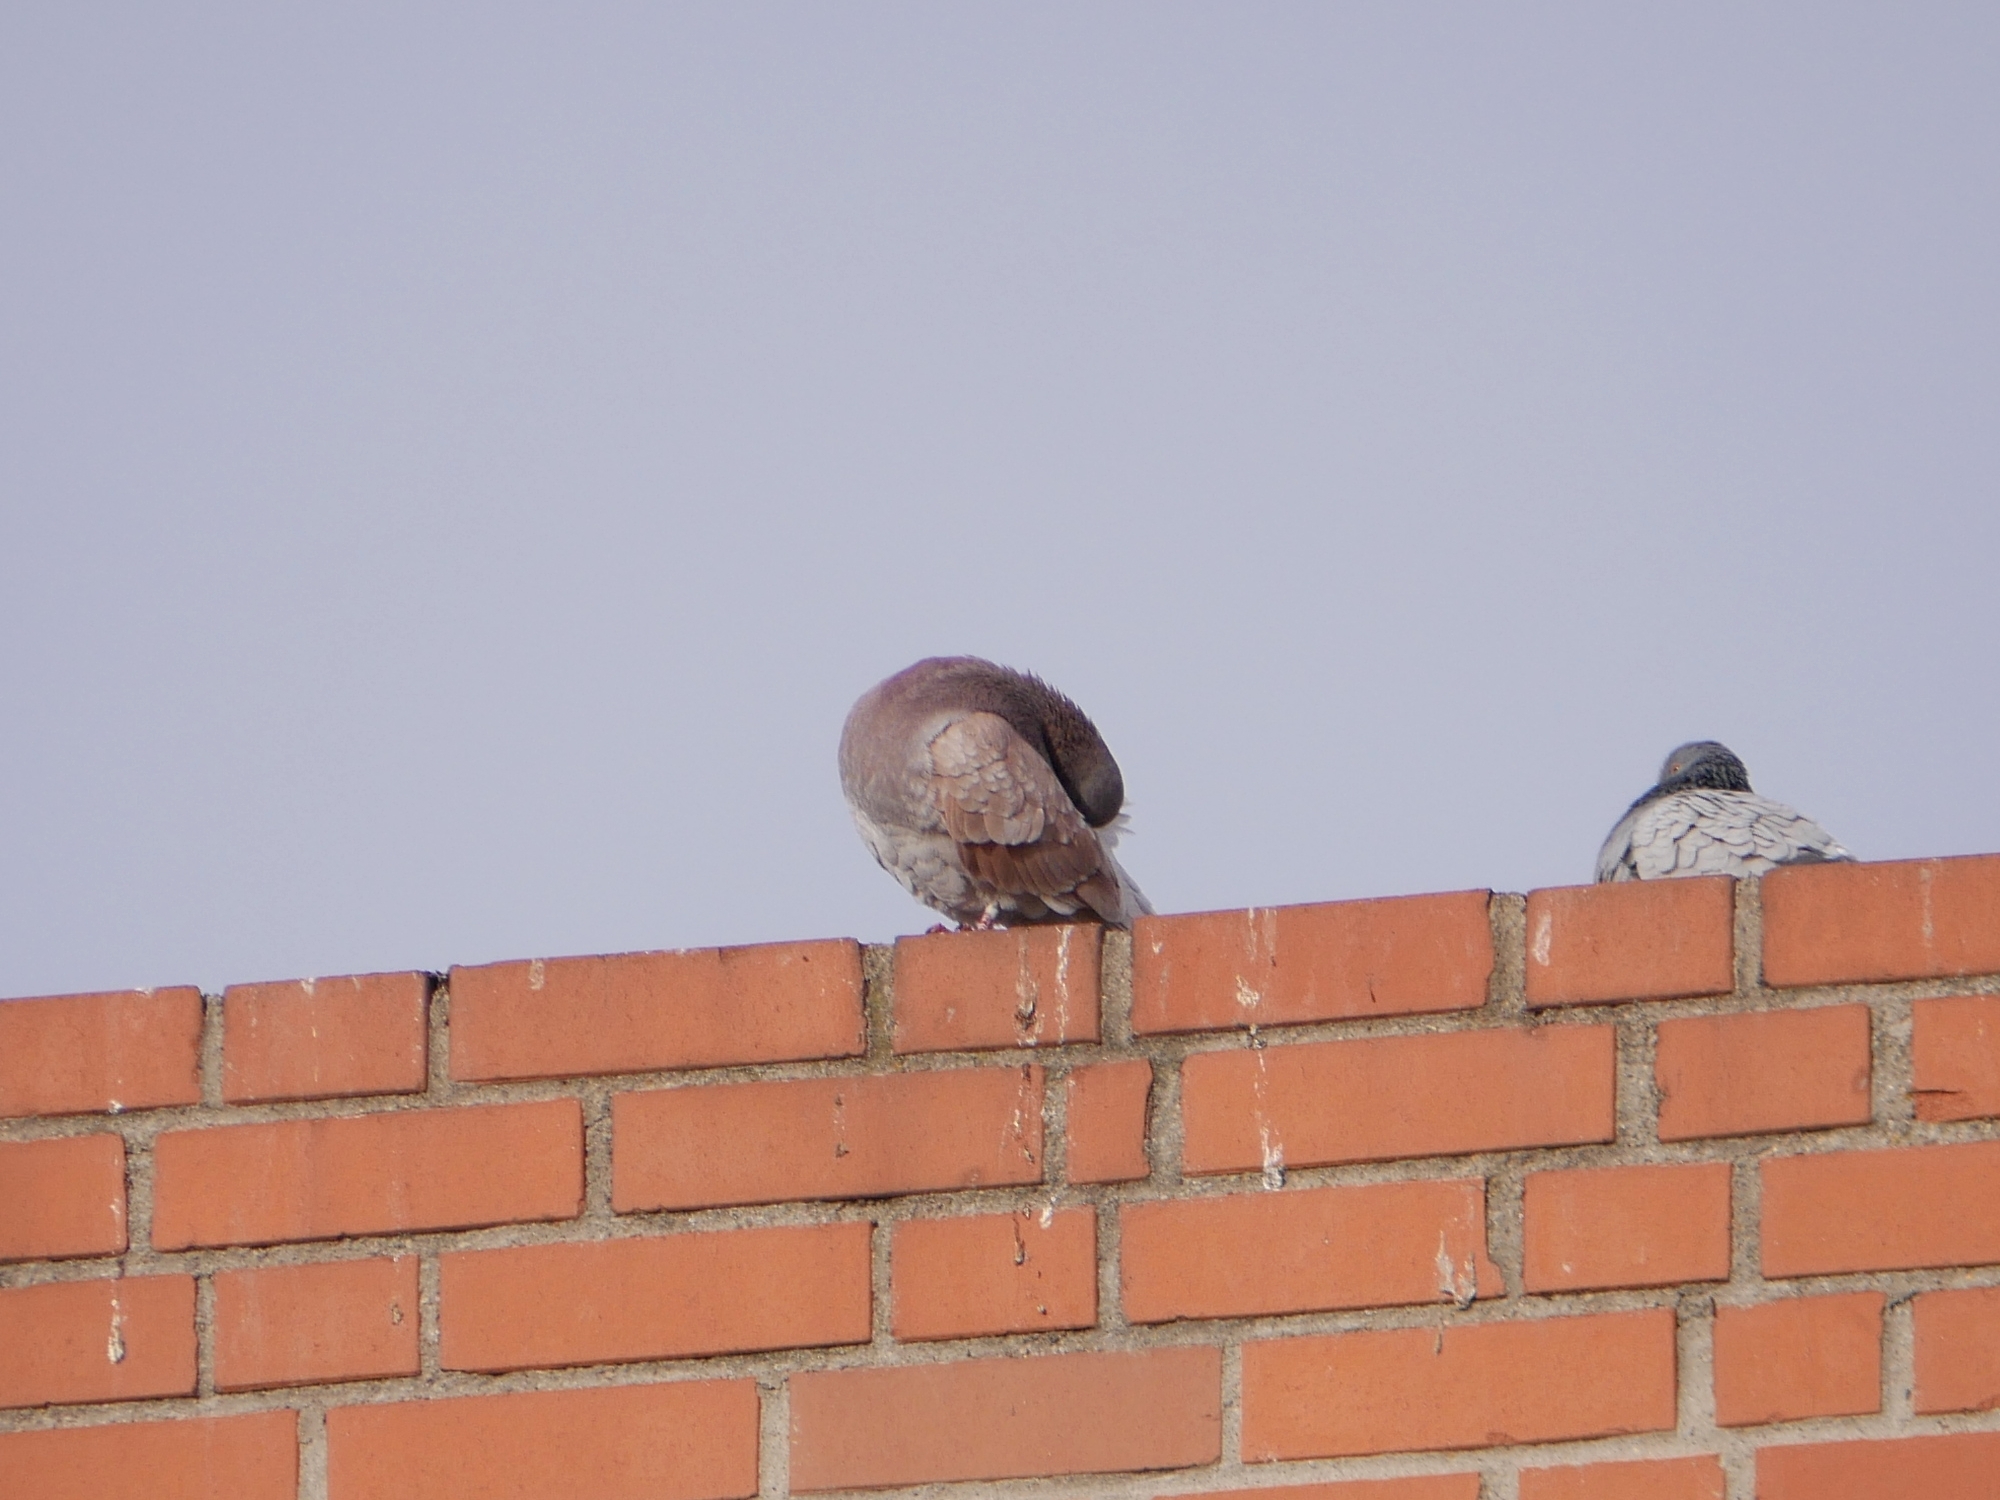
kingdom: Animalia
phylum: Chordata
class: Aves
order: Columbiformes
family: Columbidae
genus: Columba
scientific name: Columba livia
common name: Rock pigeon
